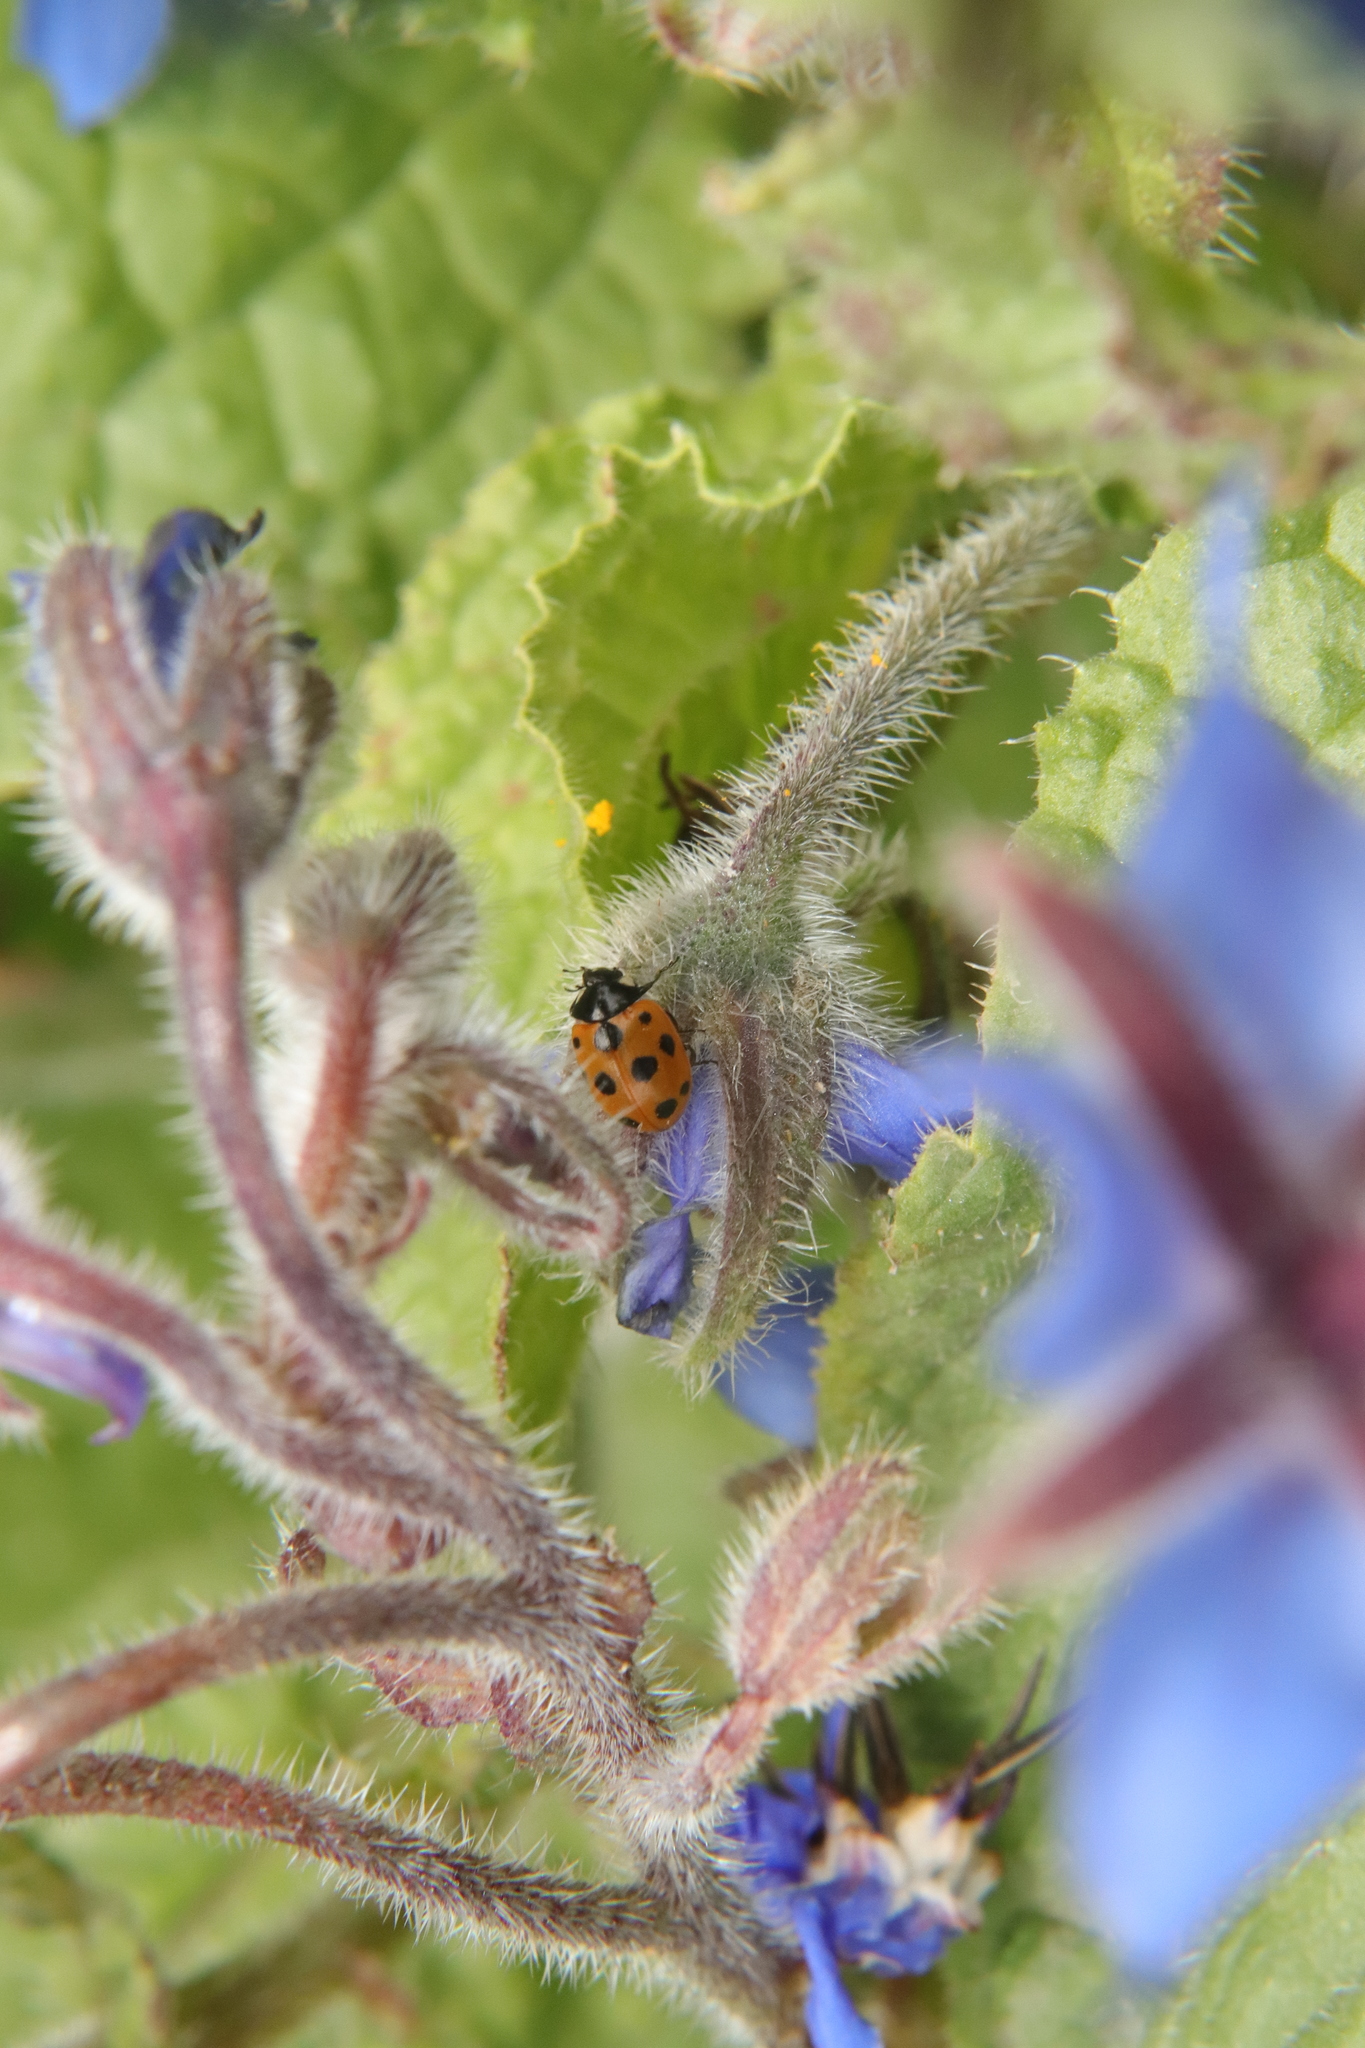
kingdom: Animalia
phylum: Arthropoda
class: Insecta
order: Coleoptera
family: Coccinellidae
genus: Coccinella
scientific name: Coccinella undecimpunctata
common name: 11-spot ladybird
